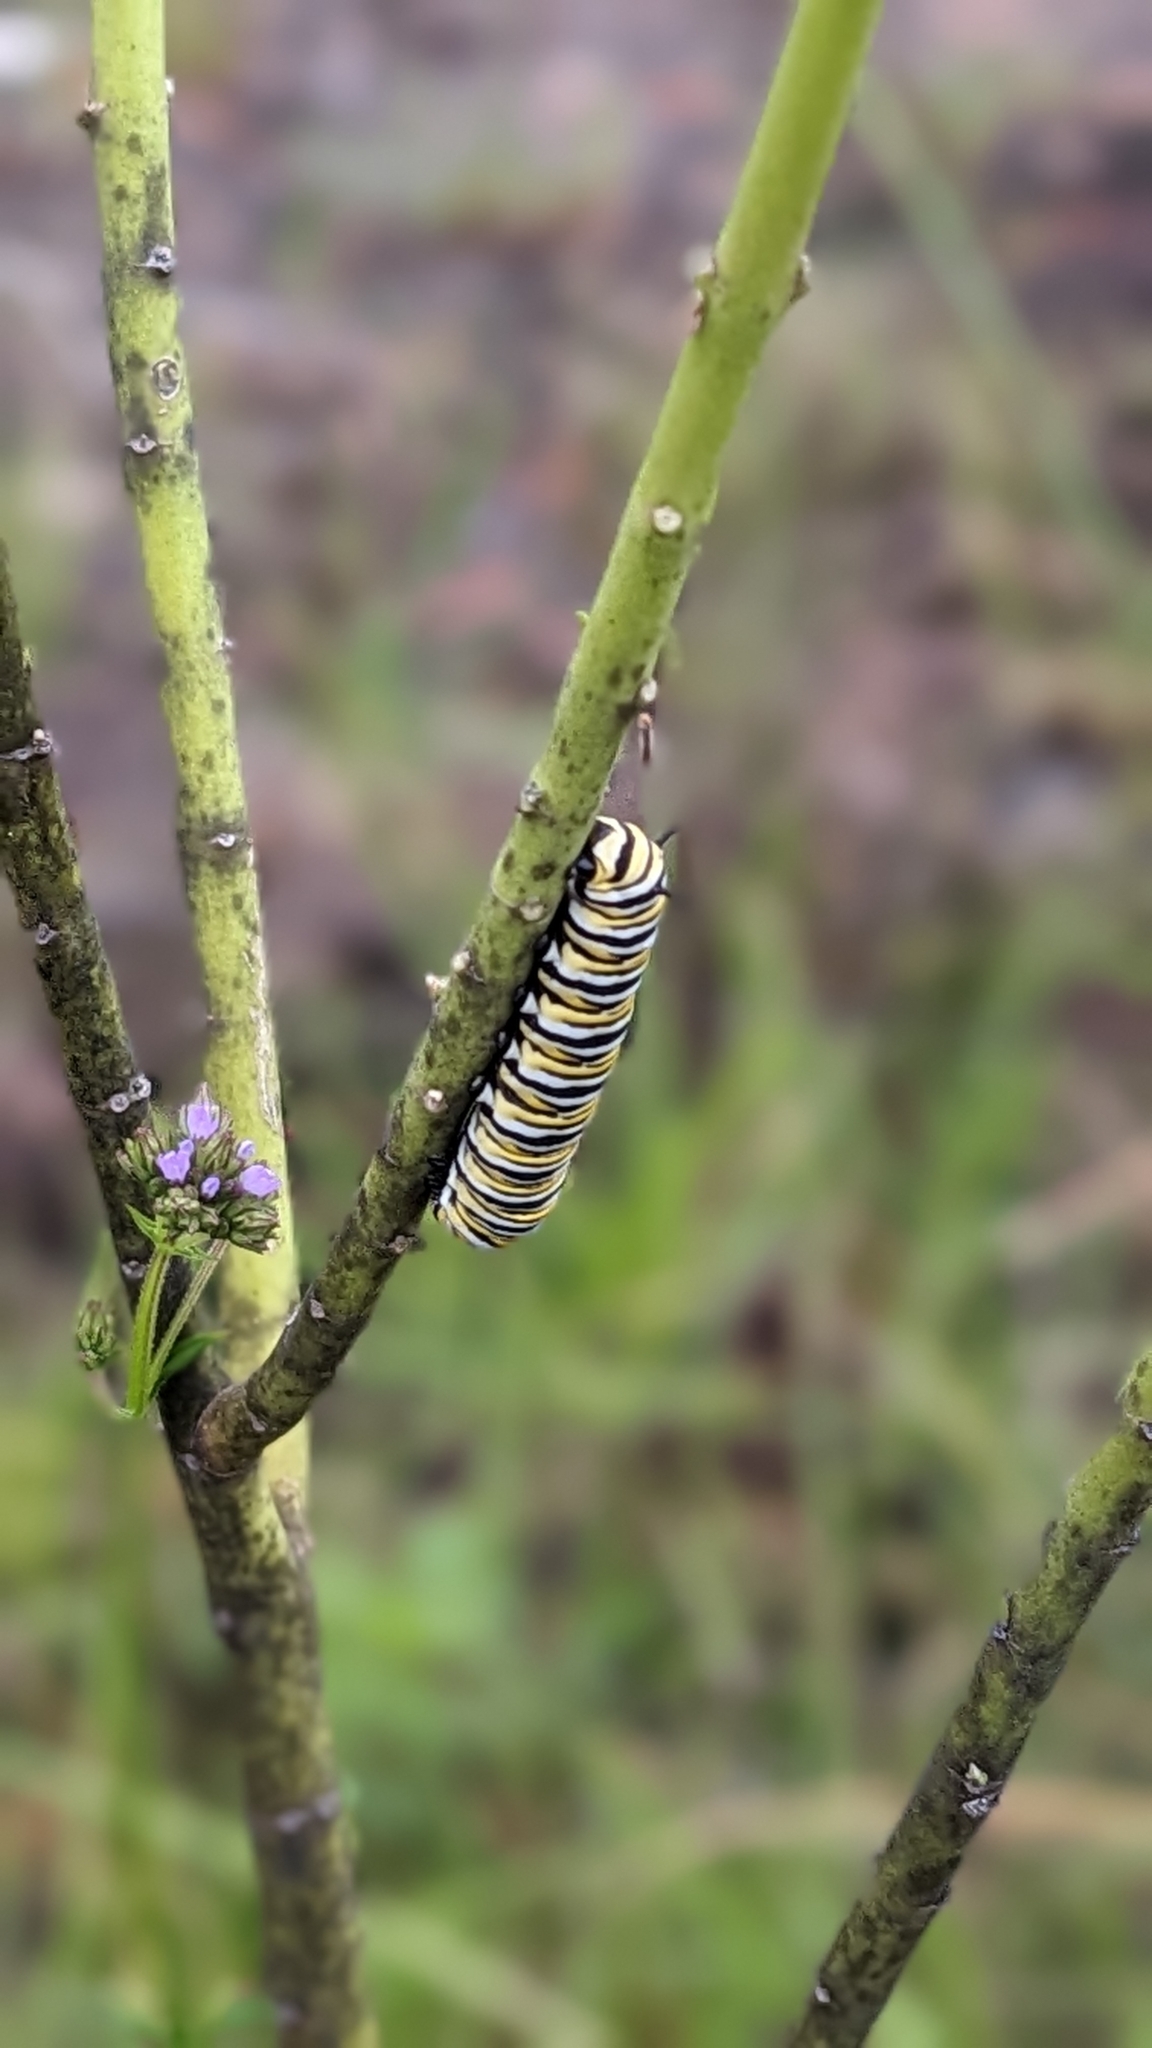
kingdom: Animalia
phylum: Arthropoda
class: Insecta
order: Lepidoptera
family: Nymphalidae
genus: Danaus
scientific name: Danaus plexippus
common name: Monarch
